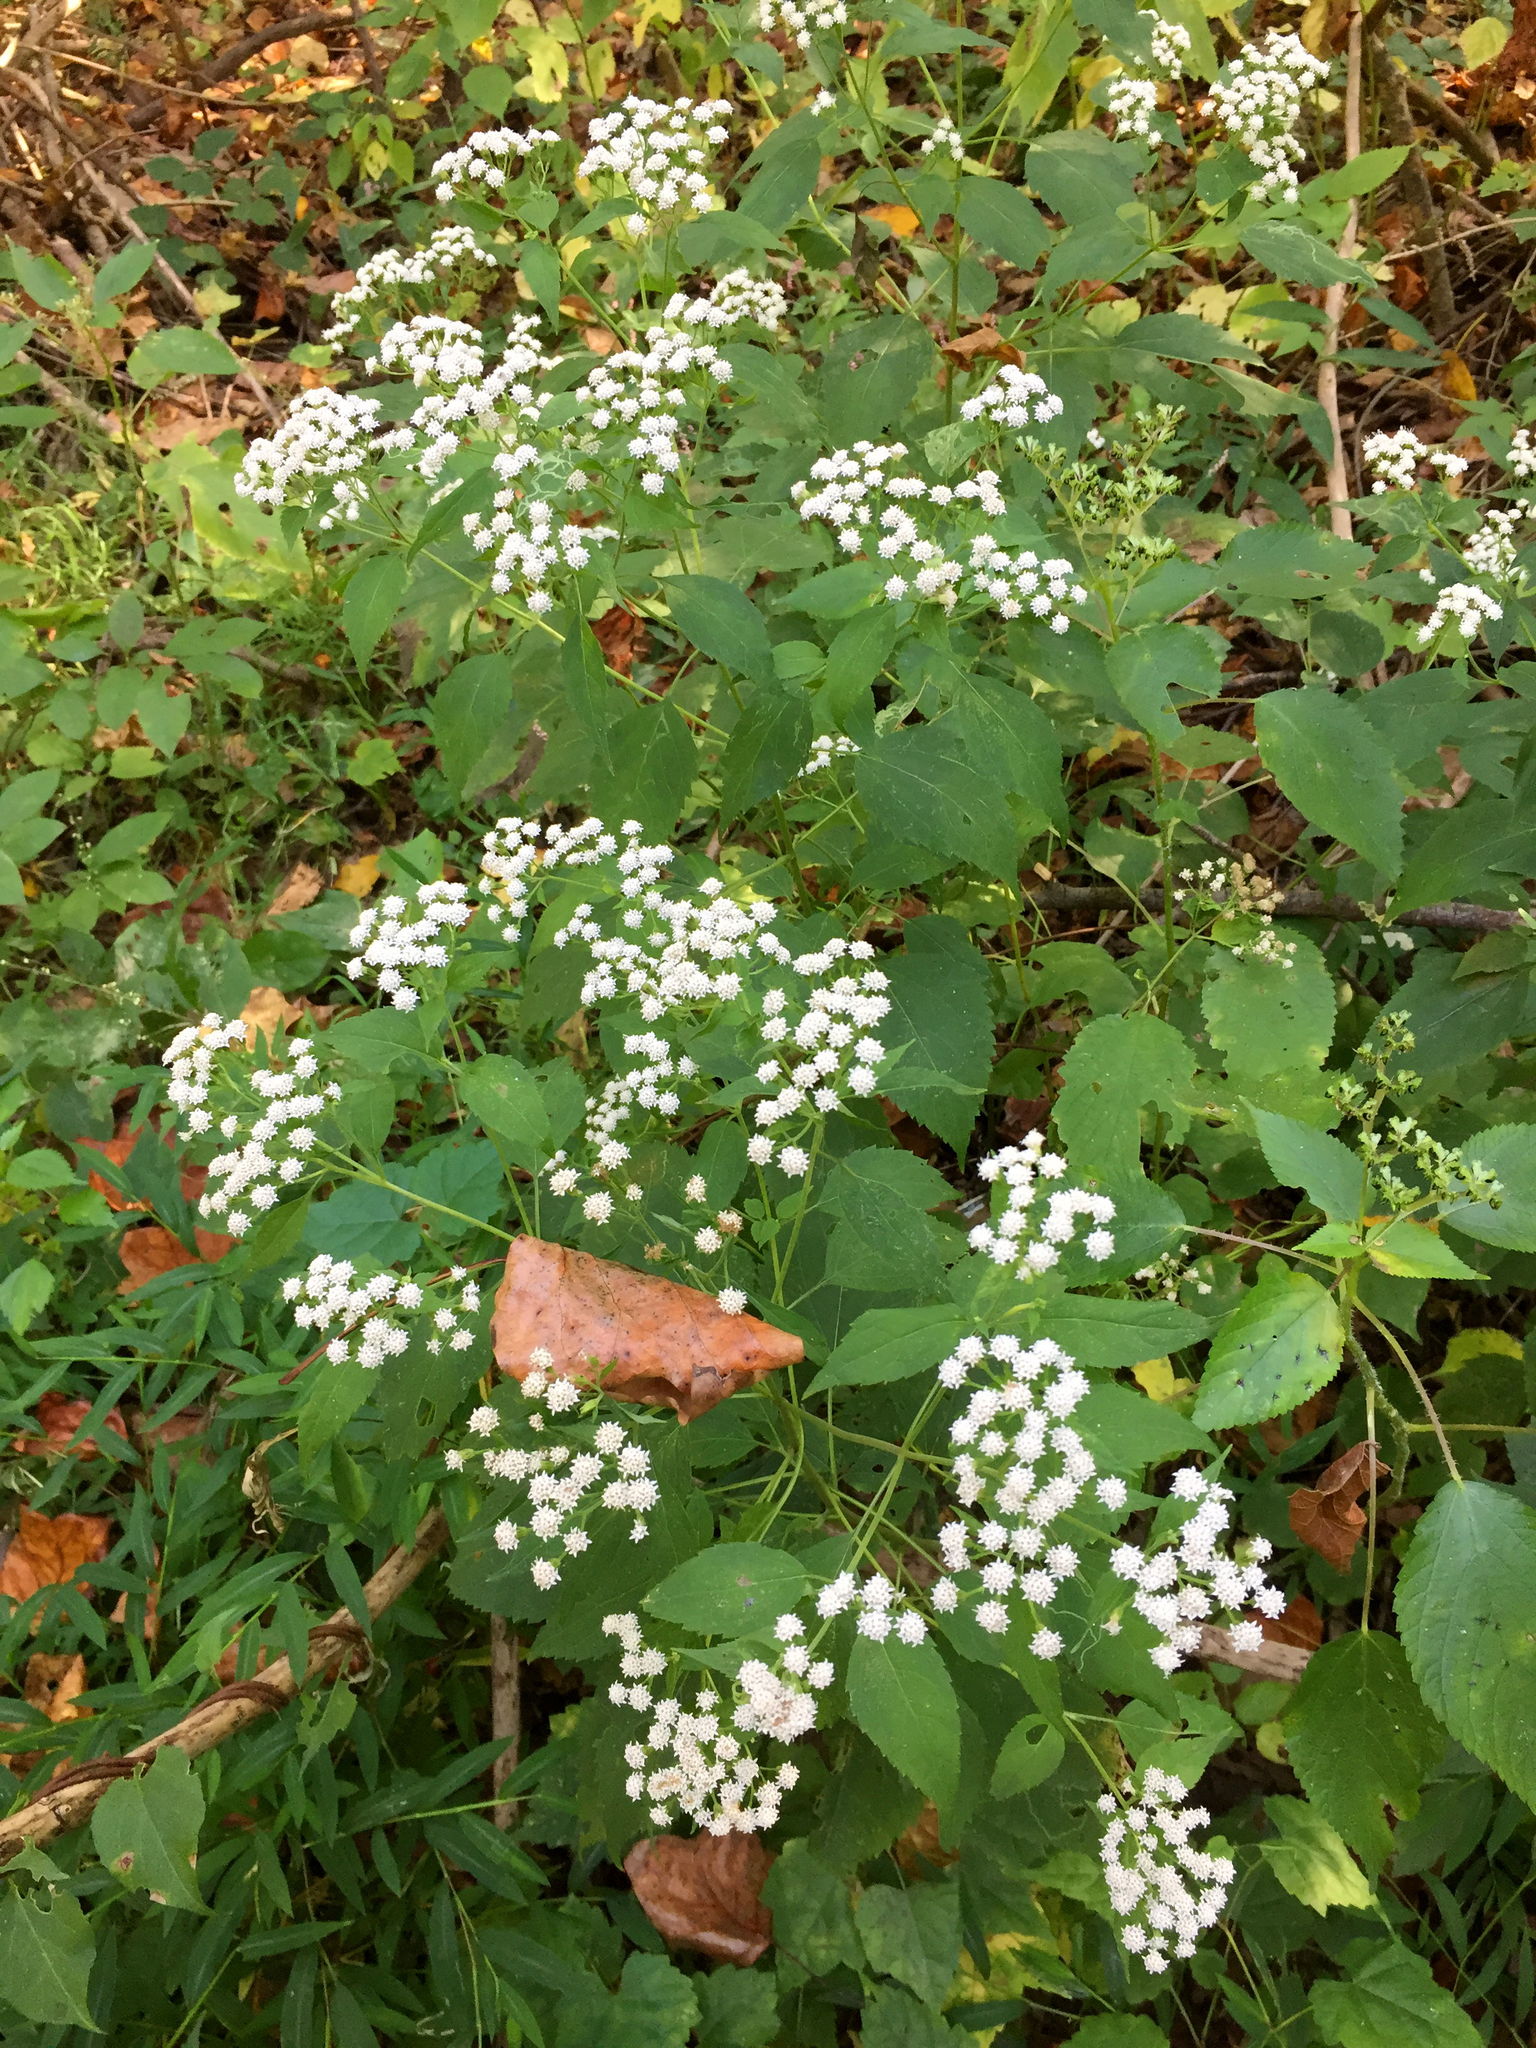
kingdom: Plantae
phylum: Tracheophyta
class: Magnoliopsida
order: Asterales
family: Asteraceae
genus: Ageratina
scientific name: Ageratina altissima
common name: White snakeroot
